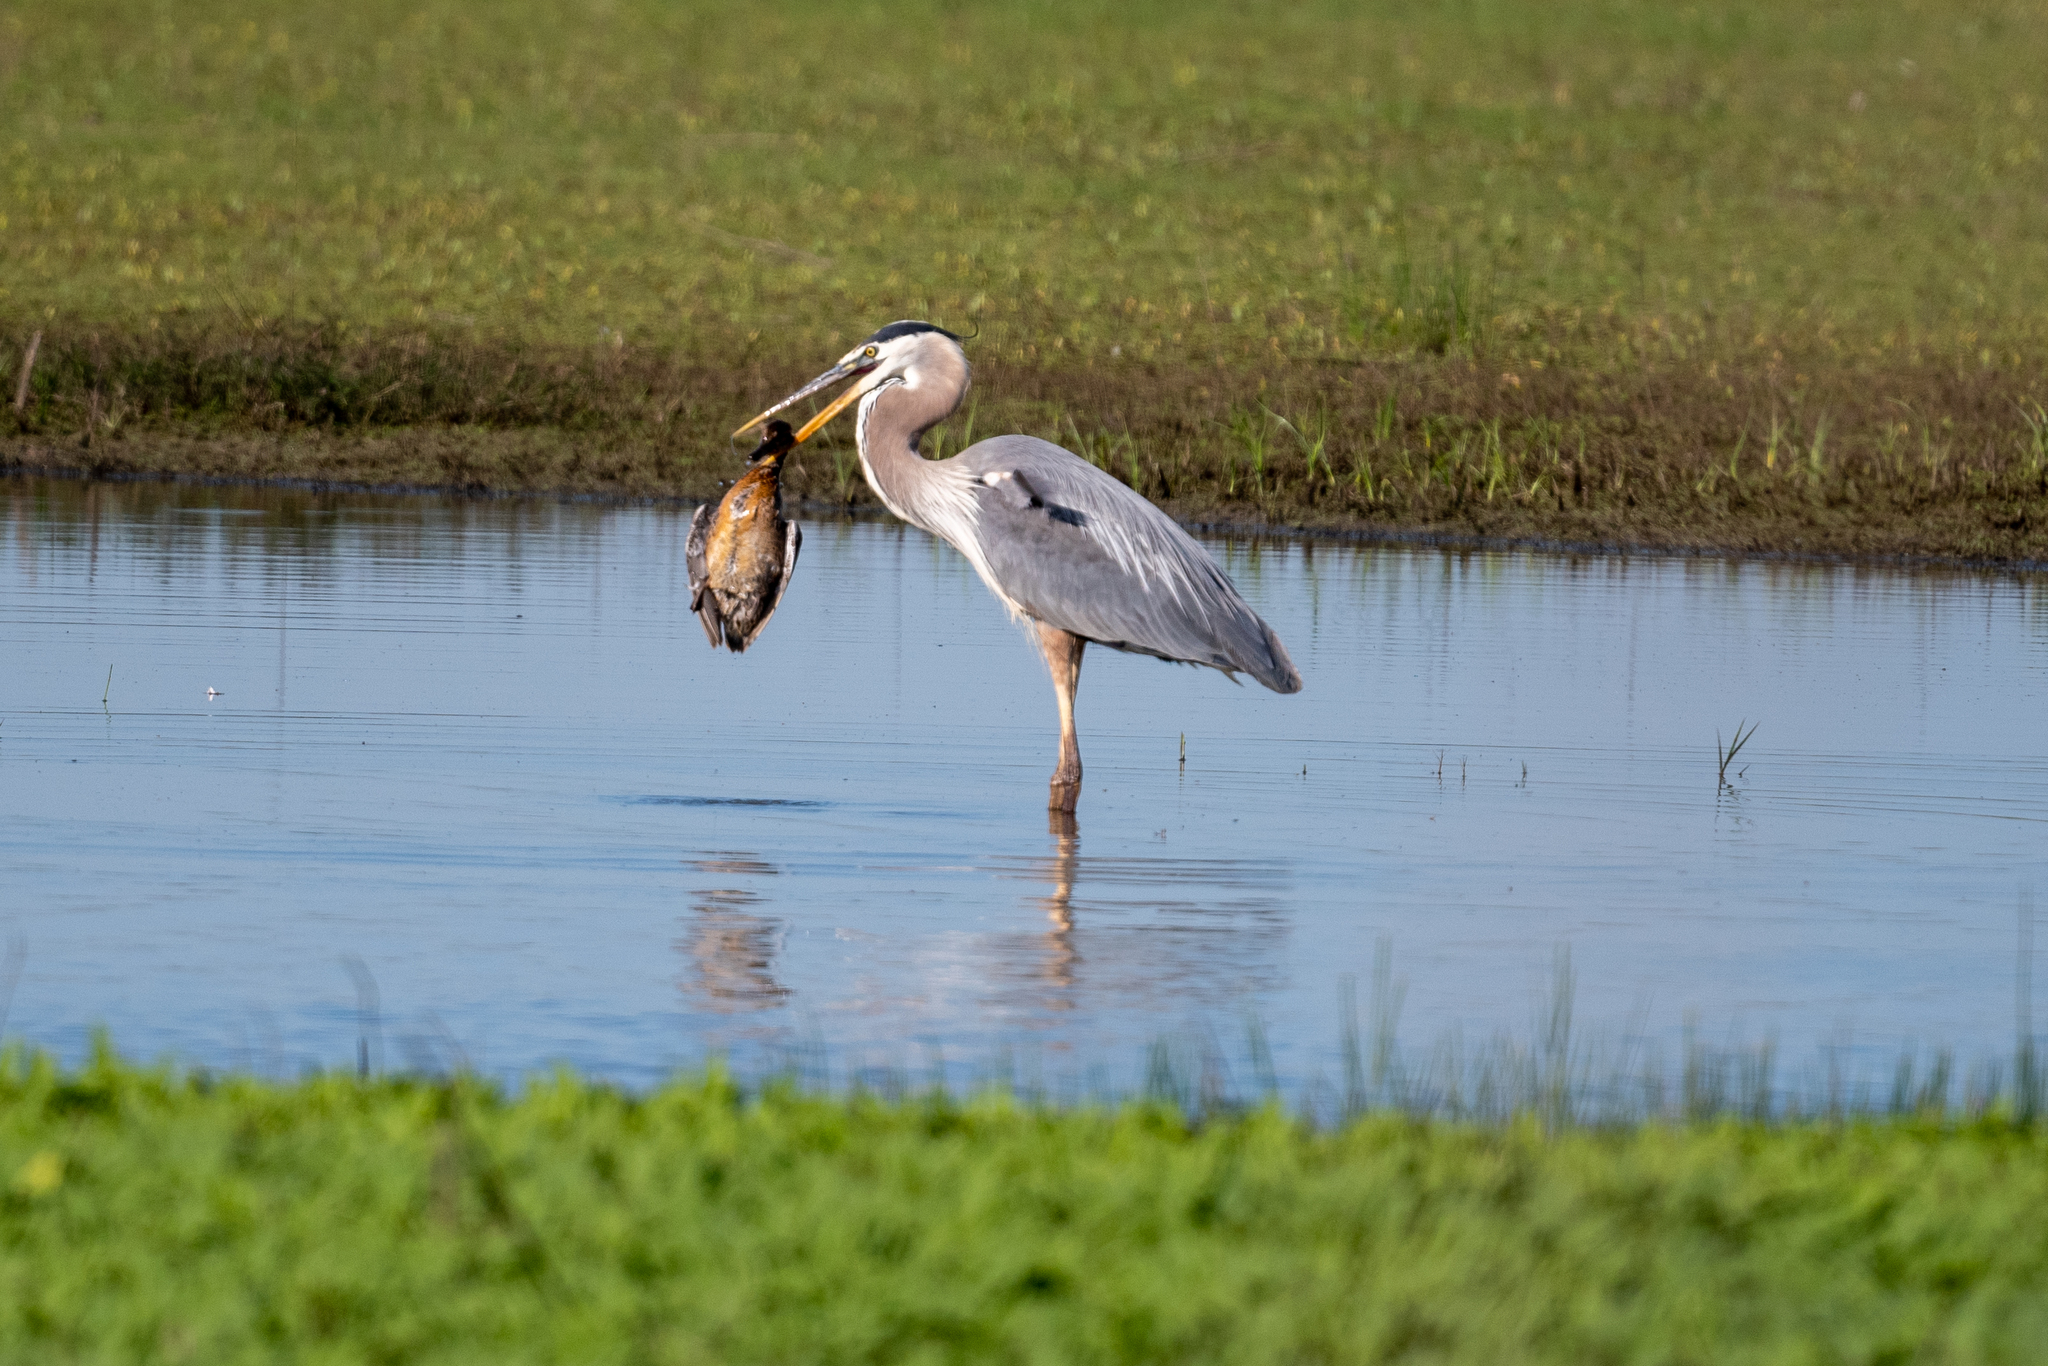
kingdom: Animalia
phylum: Chordata
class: Aves
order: Pelecaniformes
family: Ardeidae
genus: Ardea
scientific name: Ardea herodias
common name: Great blue heron
